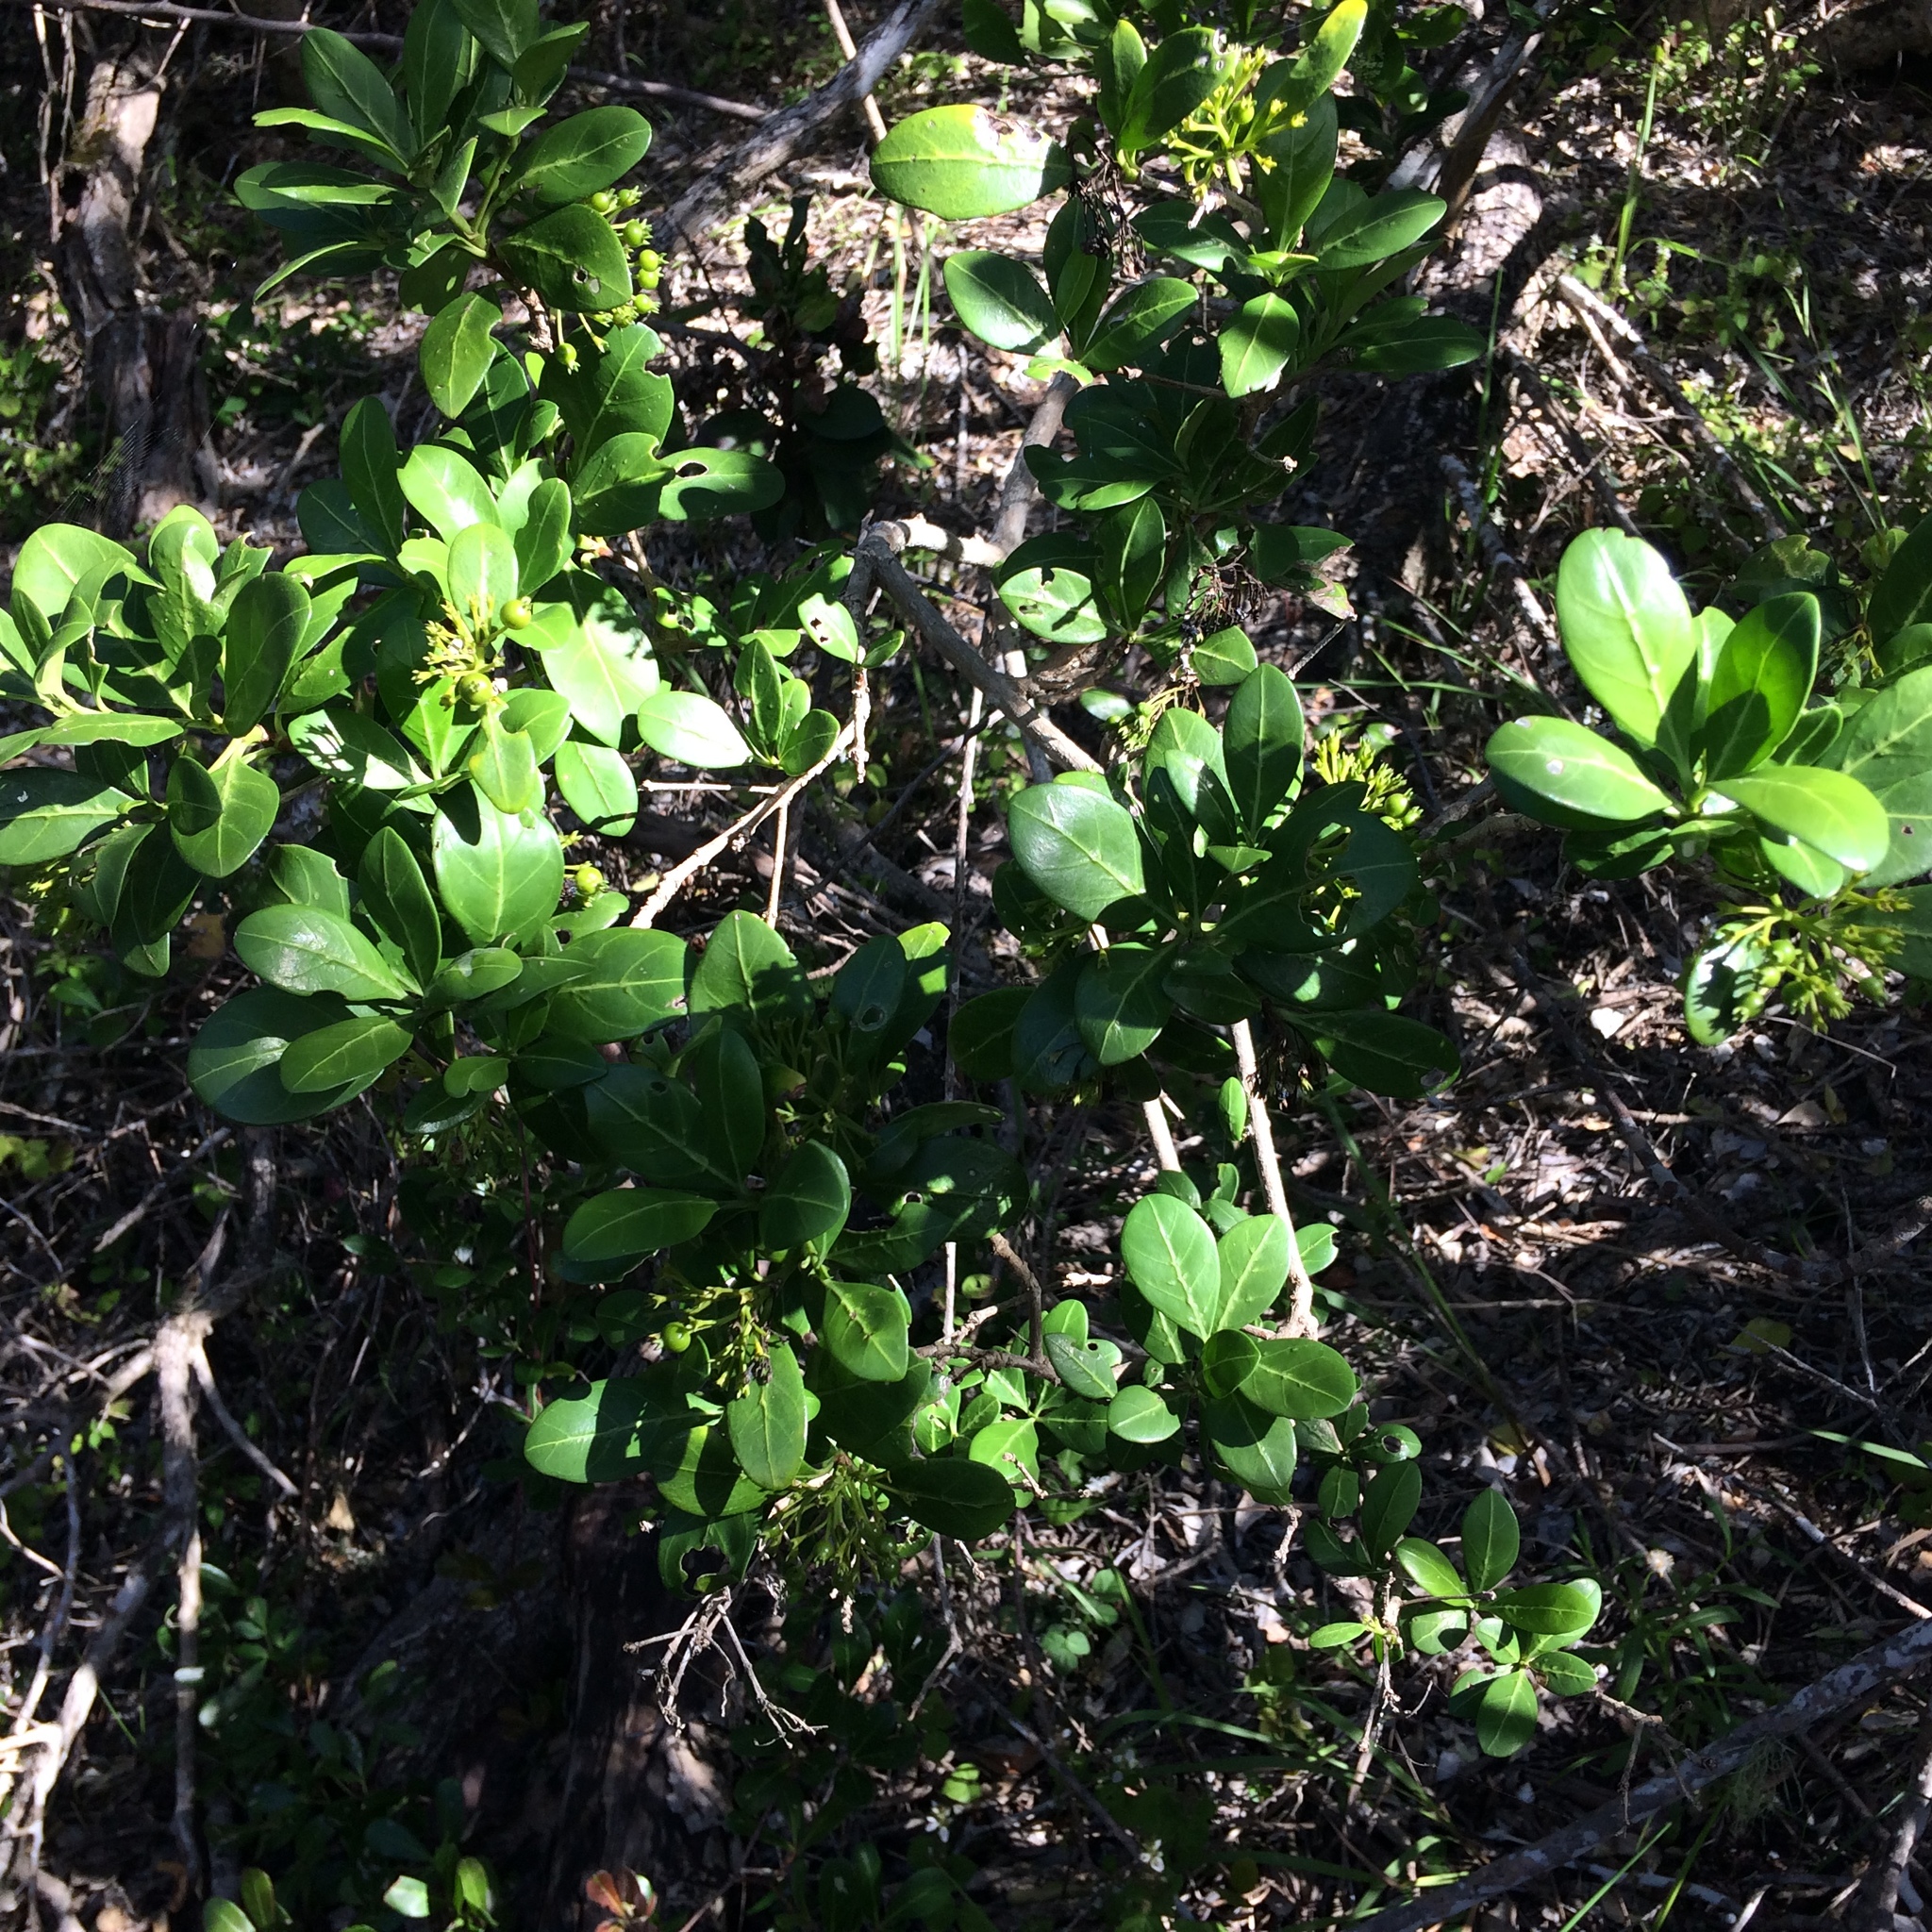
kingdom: Plantae
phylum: Tracheophyta
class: Magnoliopsida
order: Gentianales
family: Rubiaceae
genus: Pavetta
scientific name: Pavetta revoluta
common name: Dune brides-bush
